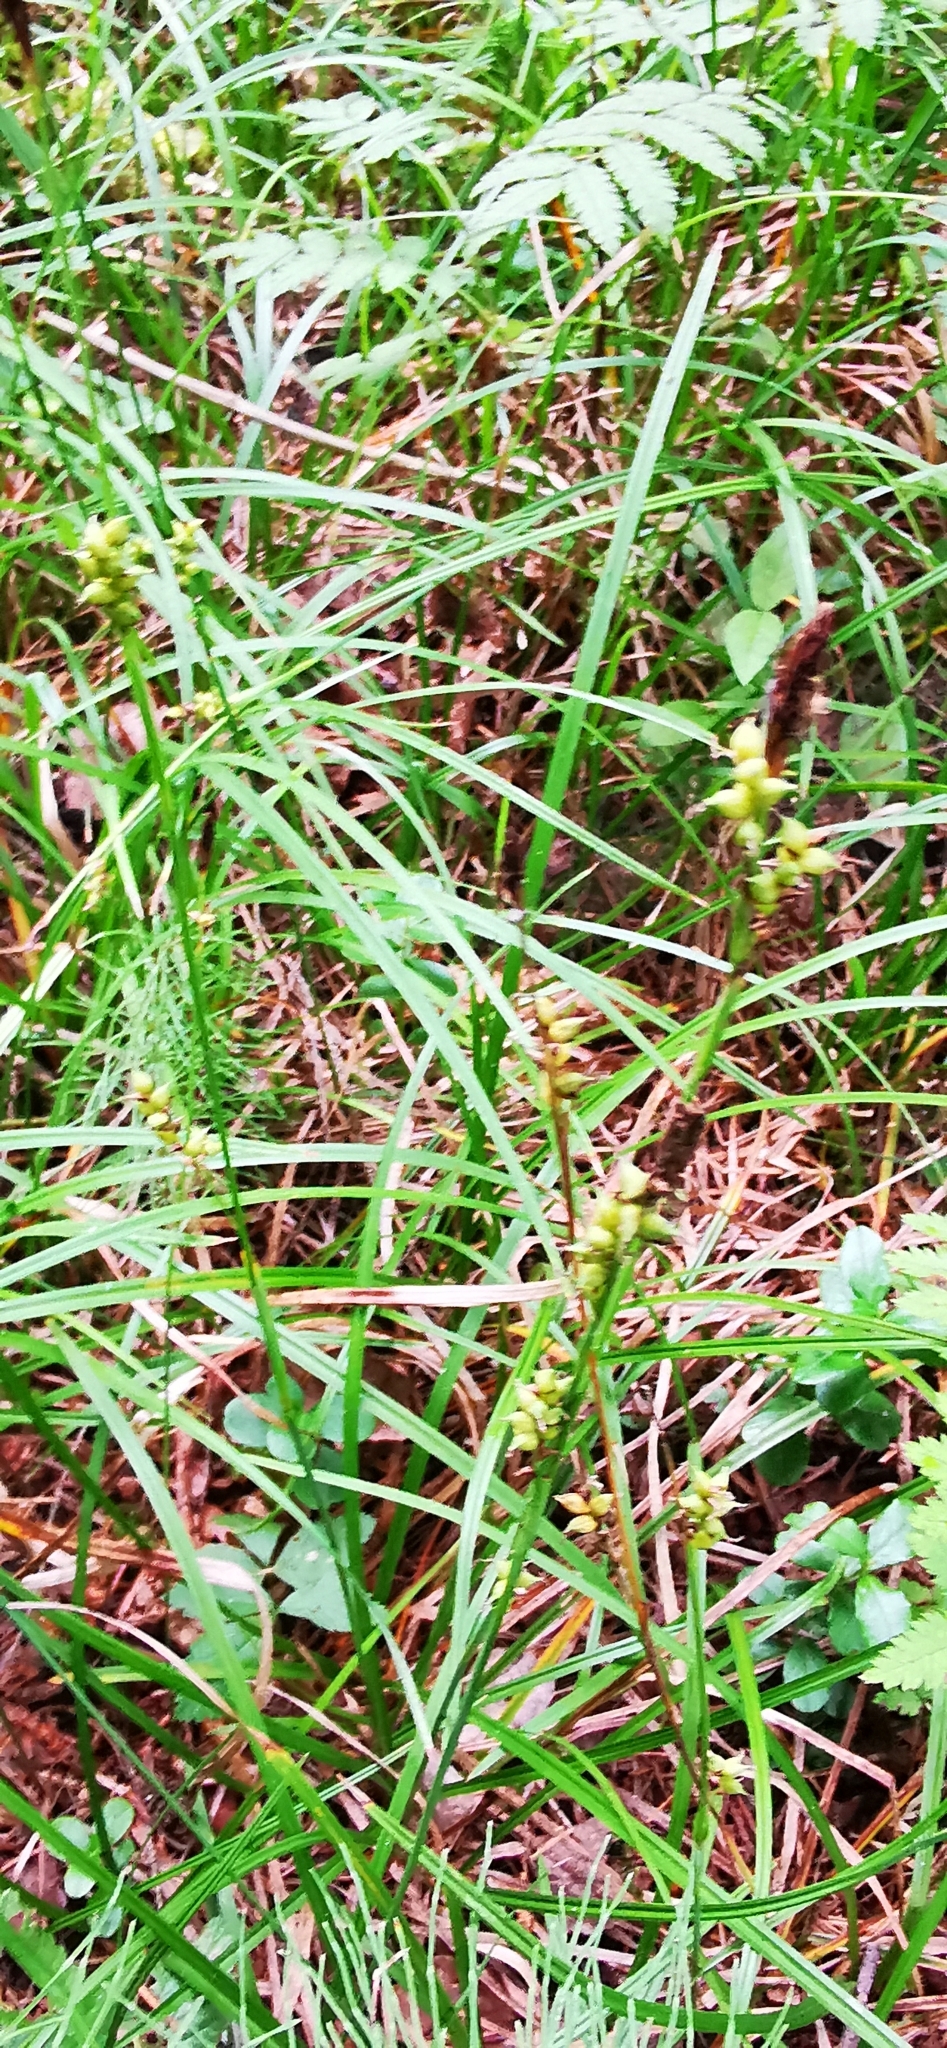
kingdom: Plantae
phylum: Tracheophyta
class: Liliopsida
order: Poales
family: Cyperaceae
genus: Carex
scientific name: Carex vaginata
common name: Sheathed sedge
